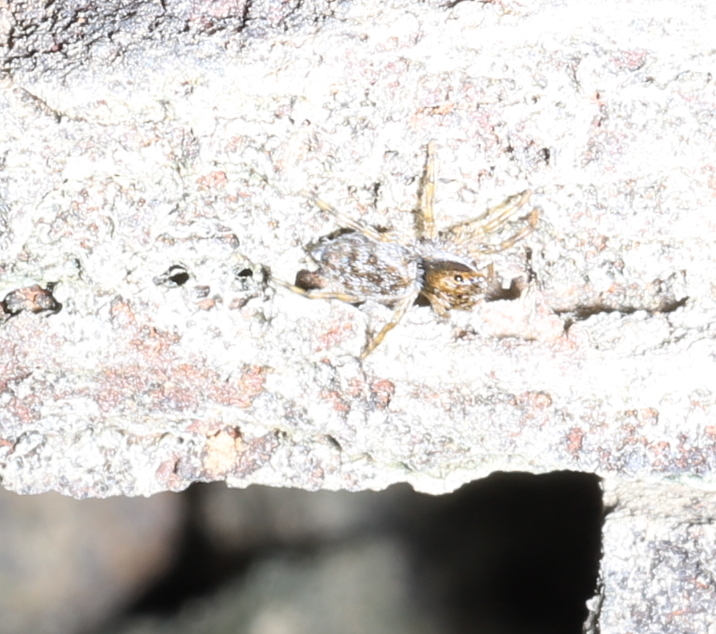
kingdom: Animalia
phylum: Arthropoda
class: Arachnida
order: Araneae
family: Salticidae
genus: Hakka
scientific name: Hakka himeshimensis
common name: Jumping spider
